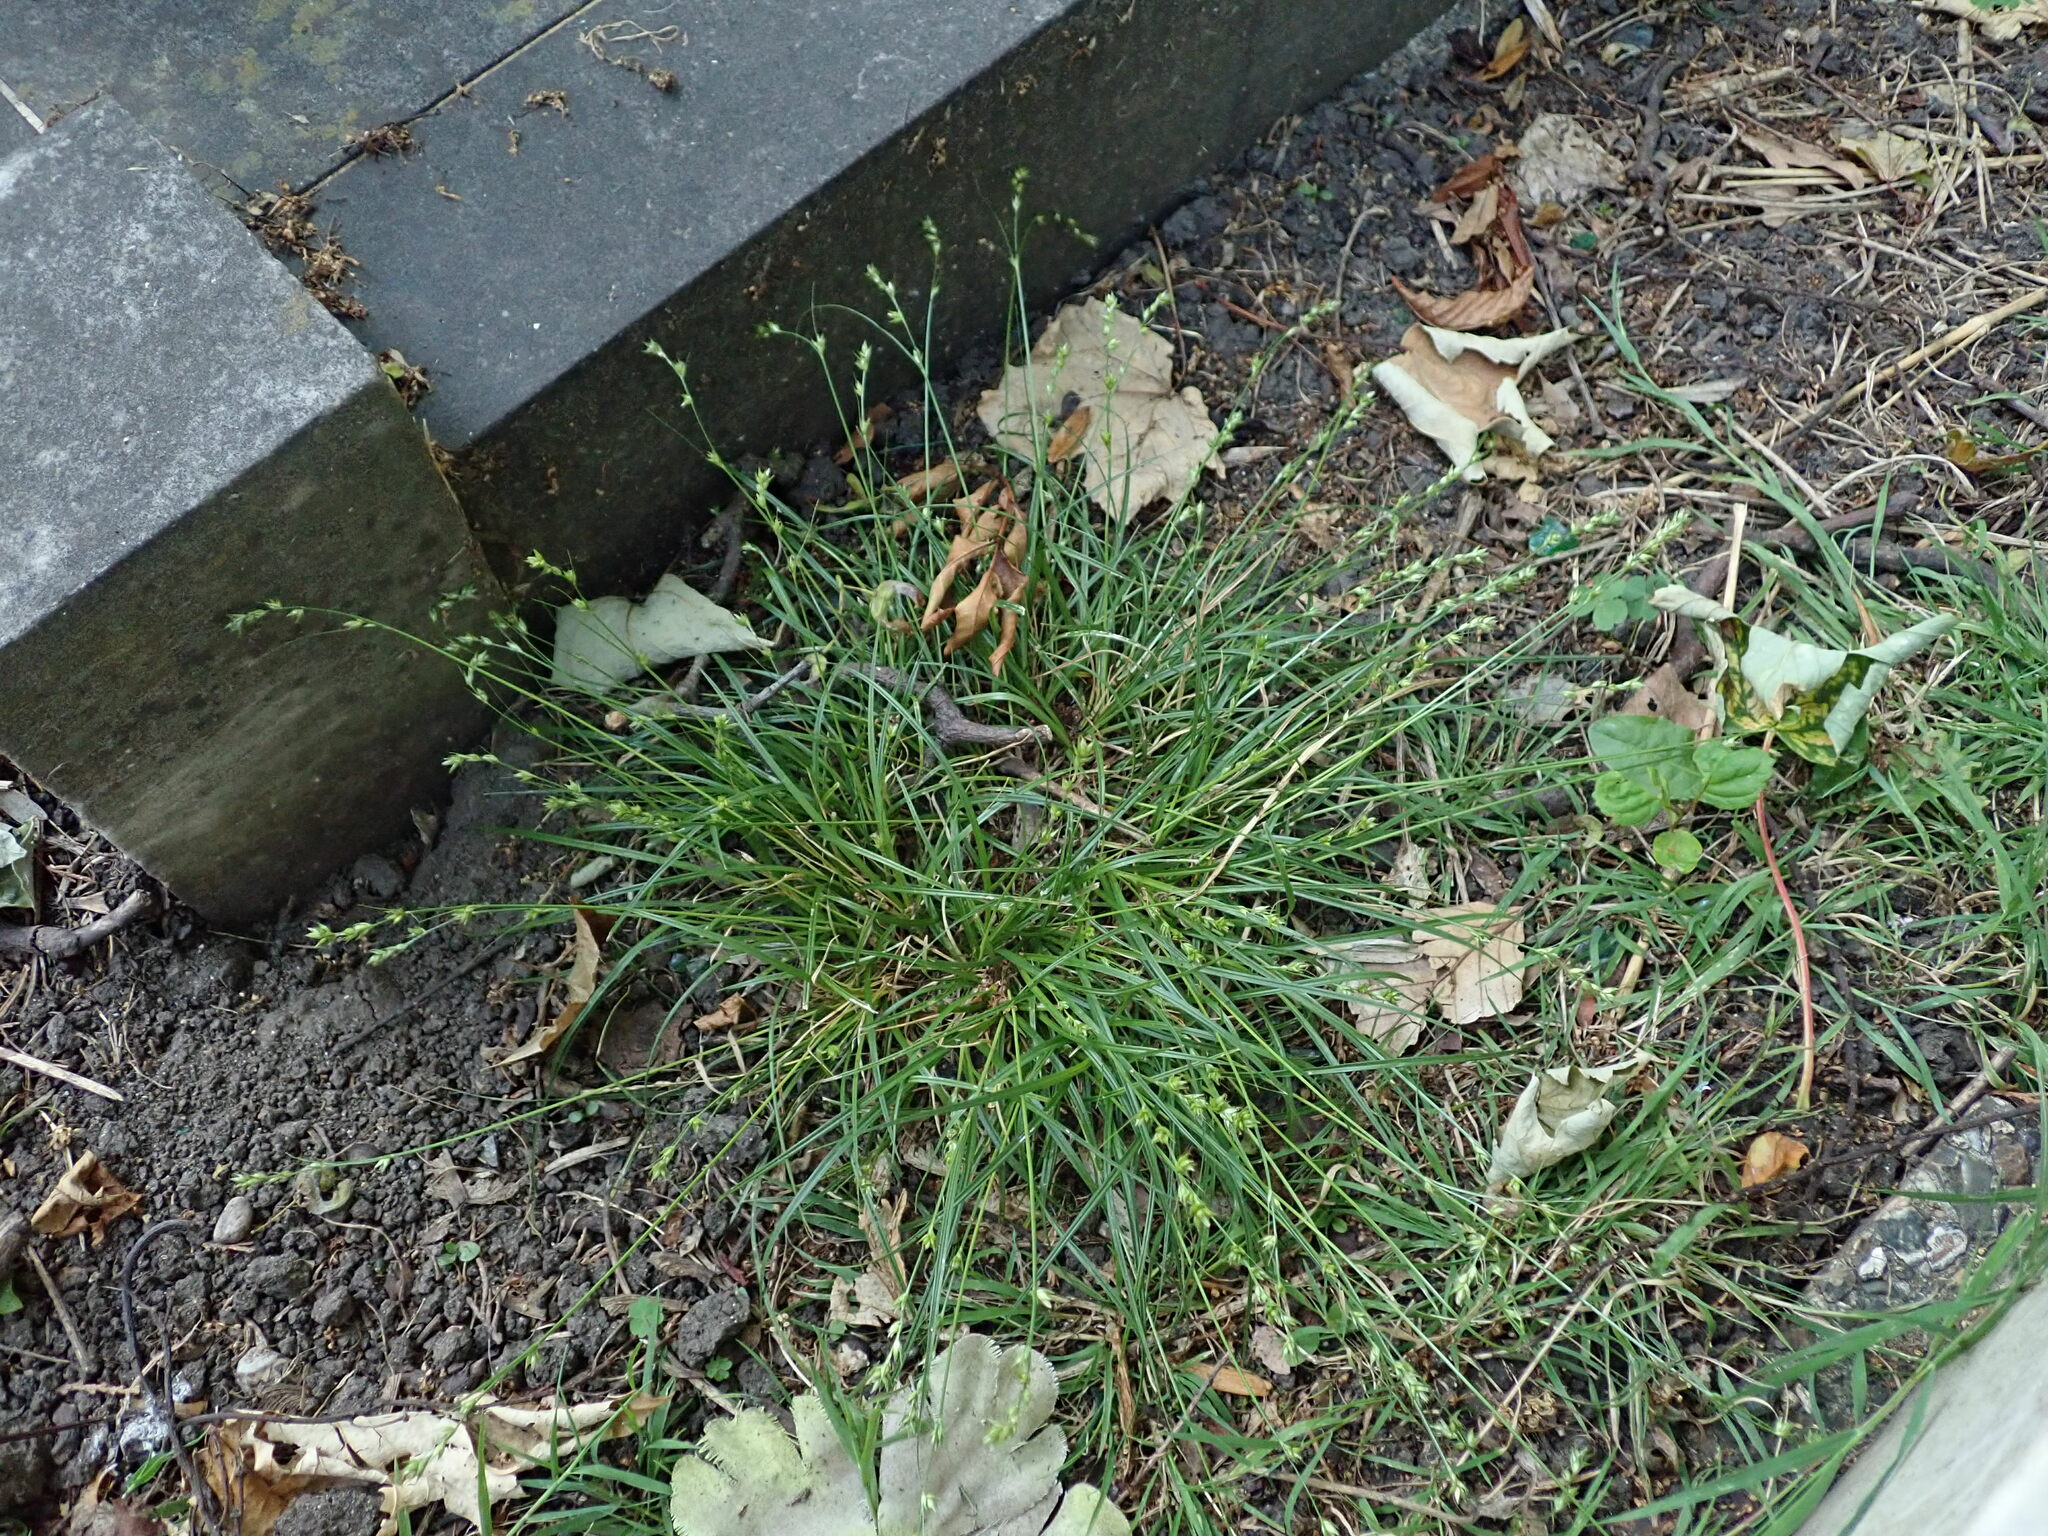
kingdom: Plantae
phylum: Tracheophyta
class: Liliopsida
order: Poales
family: Cyperaceae
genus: Carex
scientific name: Carex divulsa
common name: Grassland sedge
